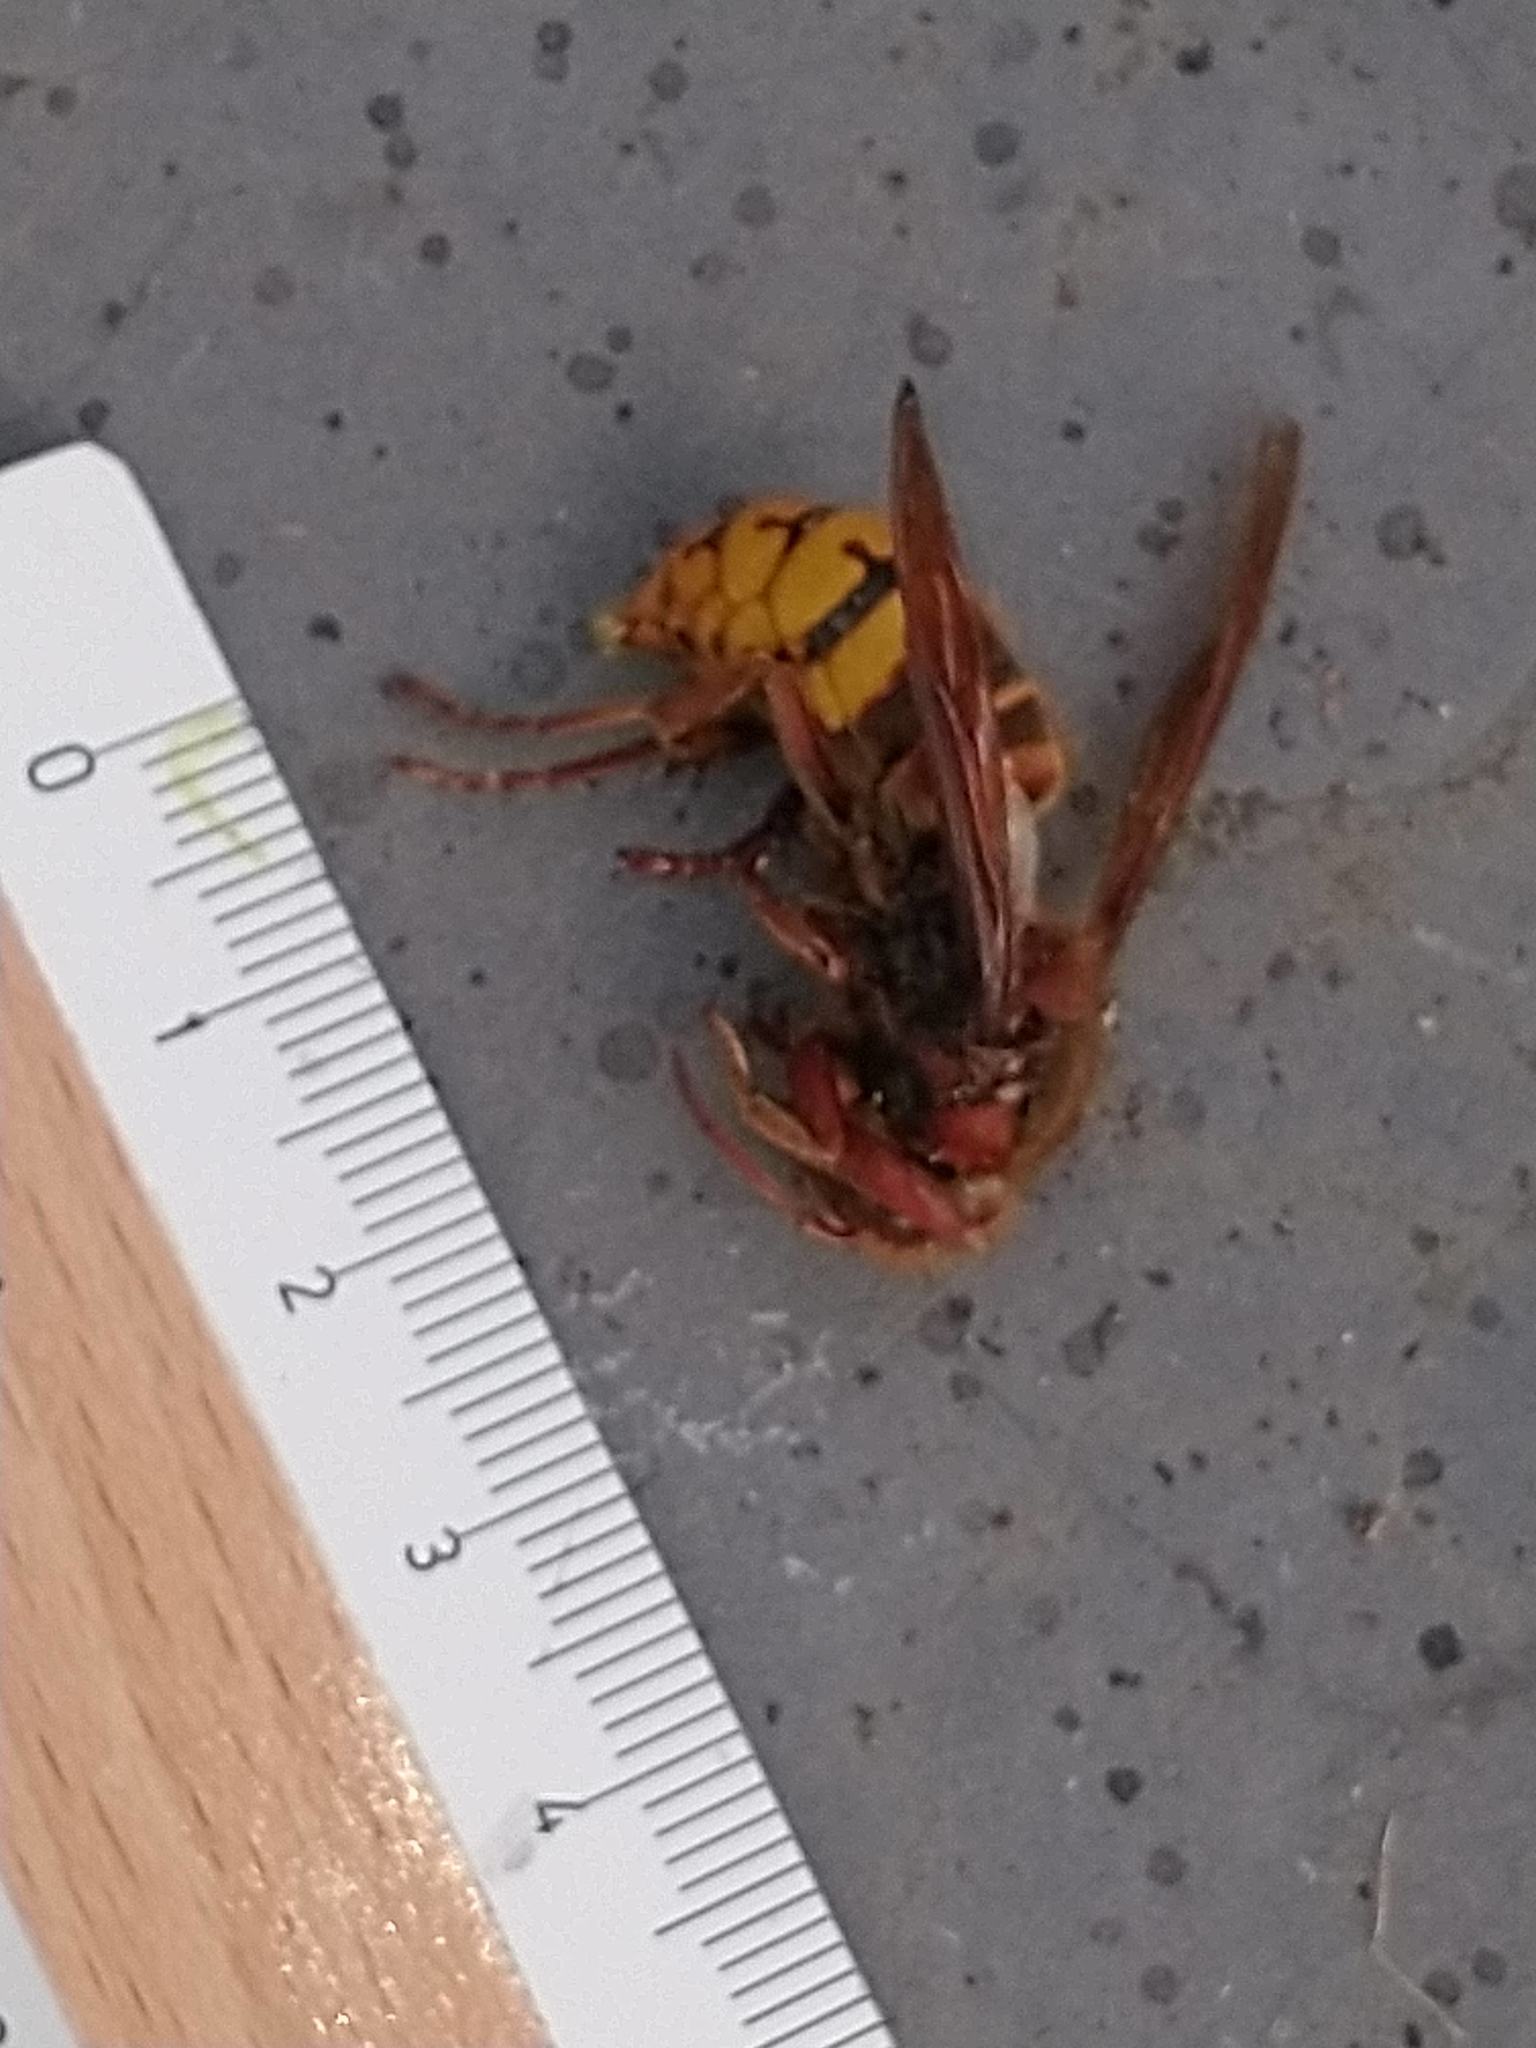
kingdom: Animalia
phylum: Arthropoda
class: Insecta
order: Hymenoptera
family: Vespidae
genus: Vespa
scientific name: Vespa crabro
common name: Hornet
